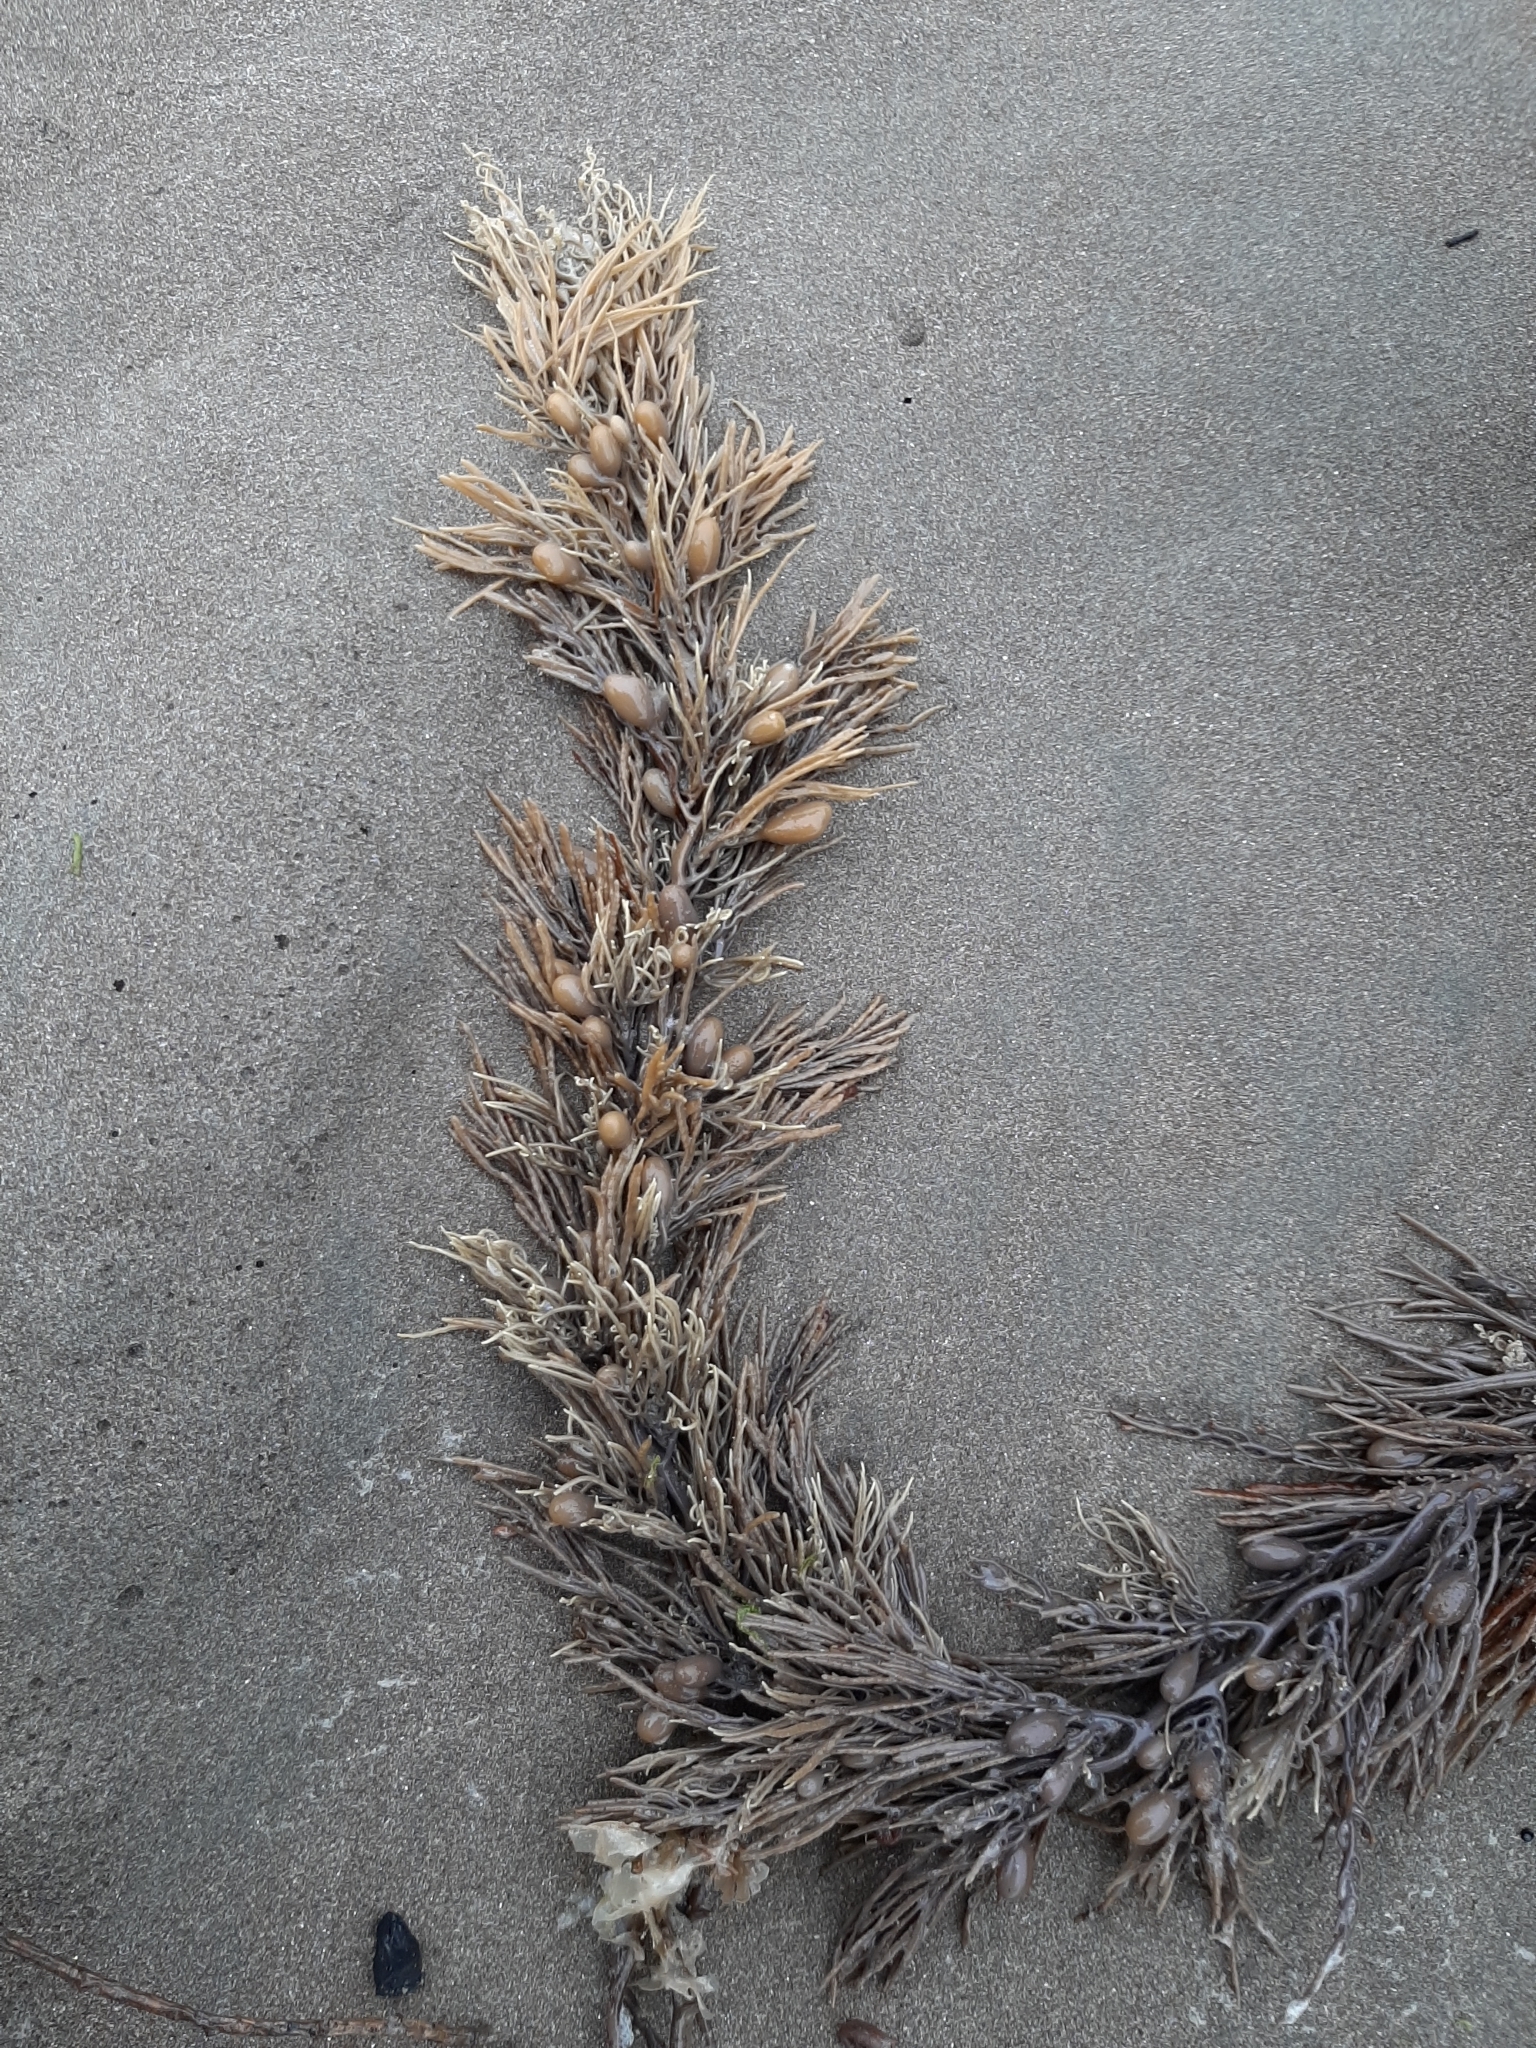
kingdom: Chromista
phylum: Ochrophyta
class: Phaeophyceae
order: Fucales
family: Sargassaceae
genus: Cystophora
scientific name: Cystophora retroflexa
